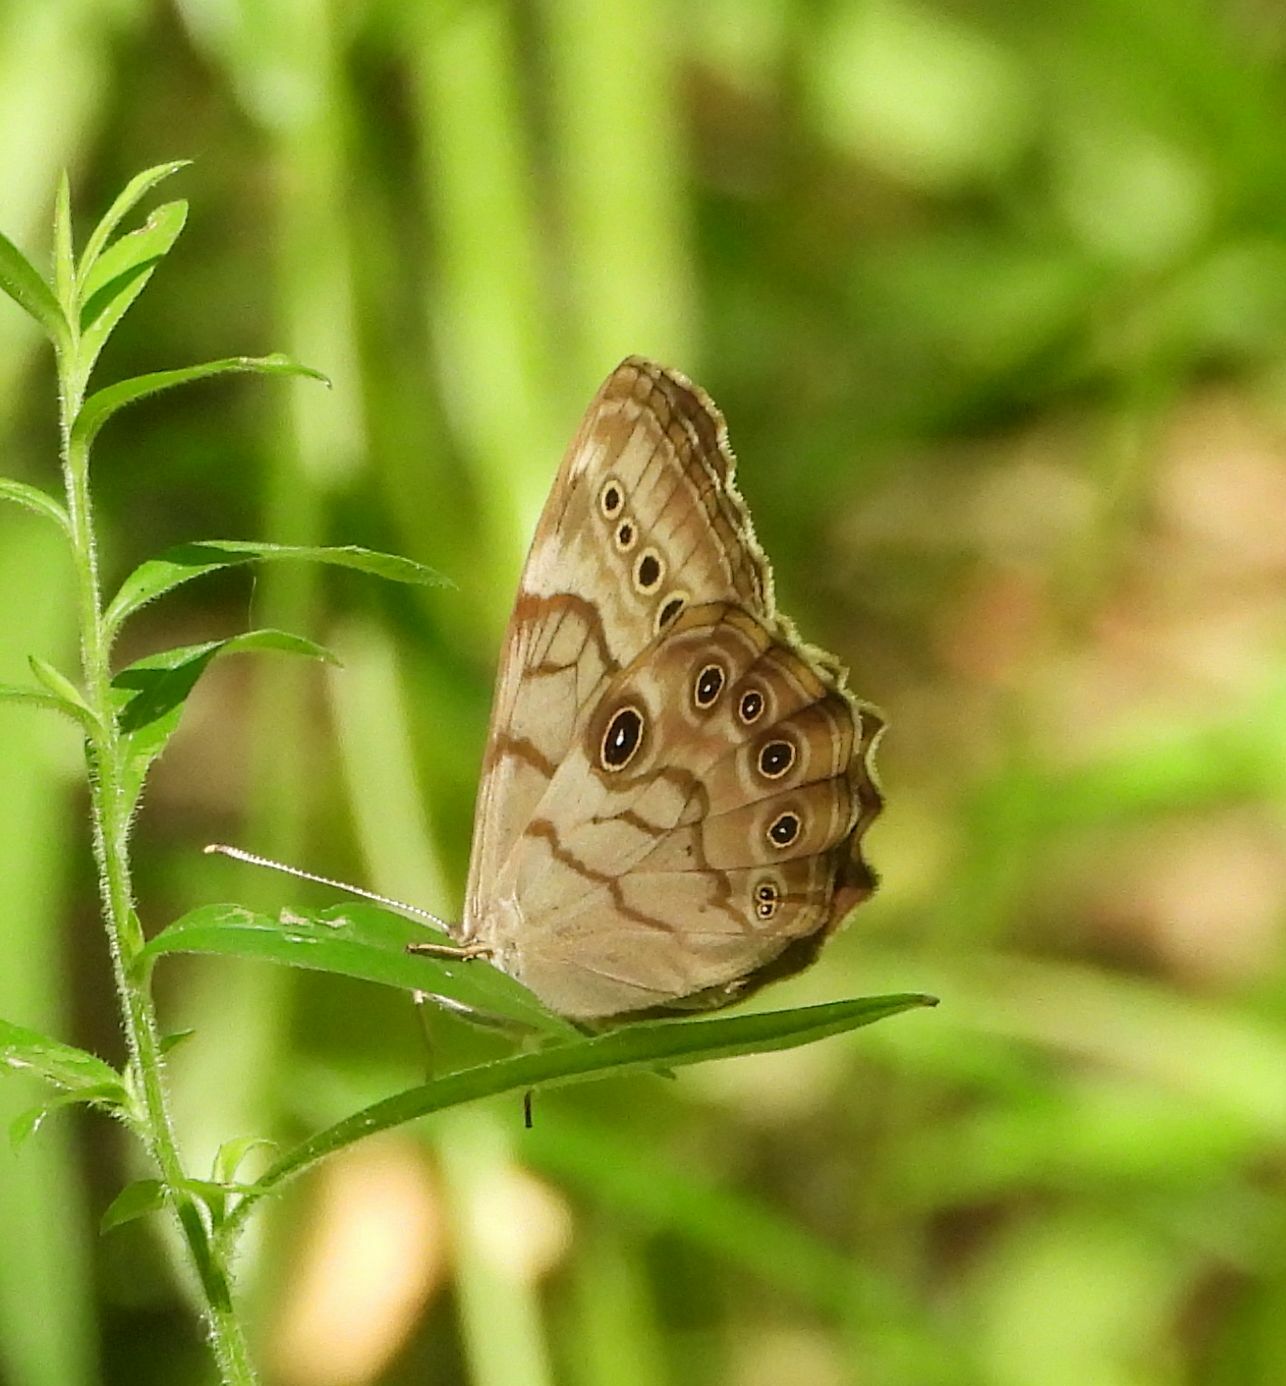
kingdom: Animalia
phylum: Arthropoda
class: Insecta
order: Lepidoptera
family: Nymphalidae
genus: Lethe
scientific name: Lethe anthedon
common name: Northern pearly-eye
